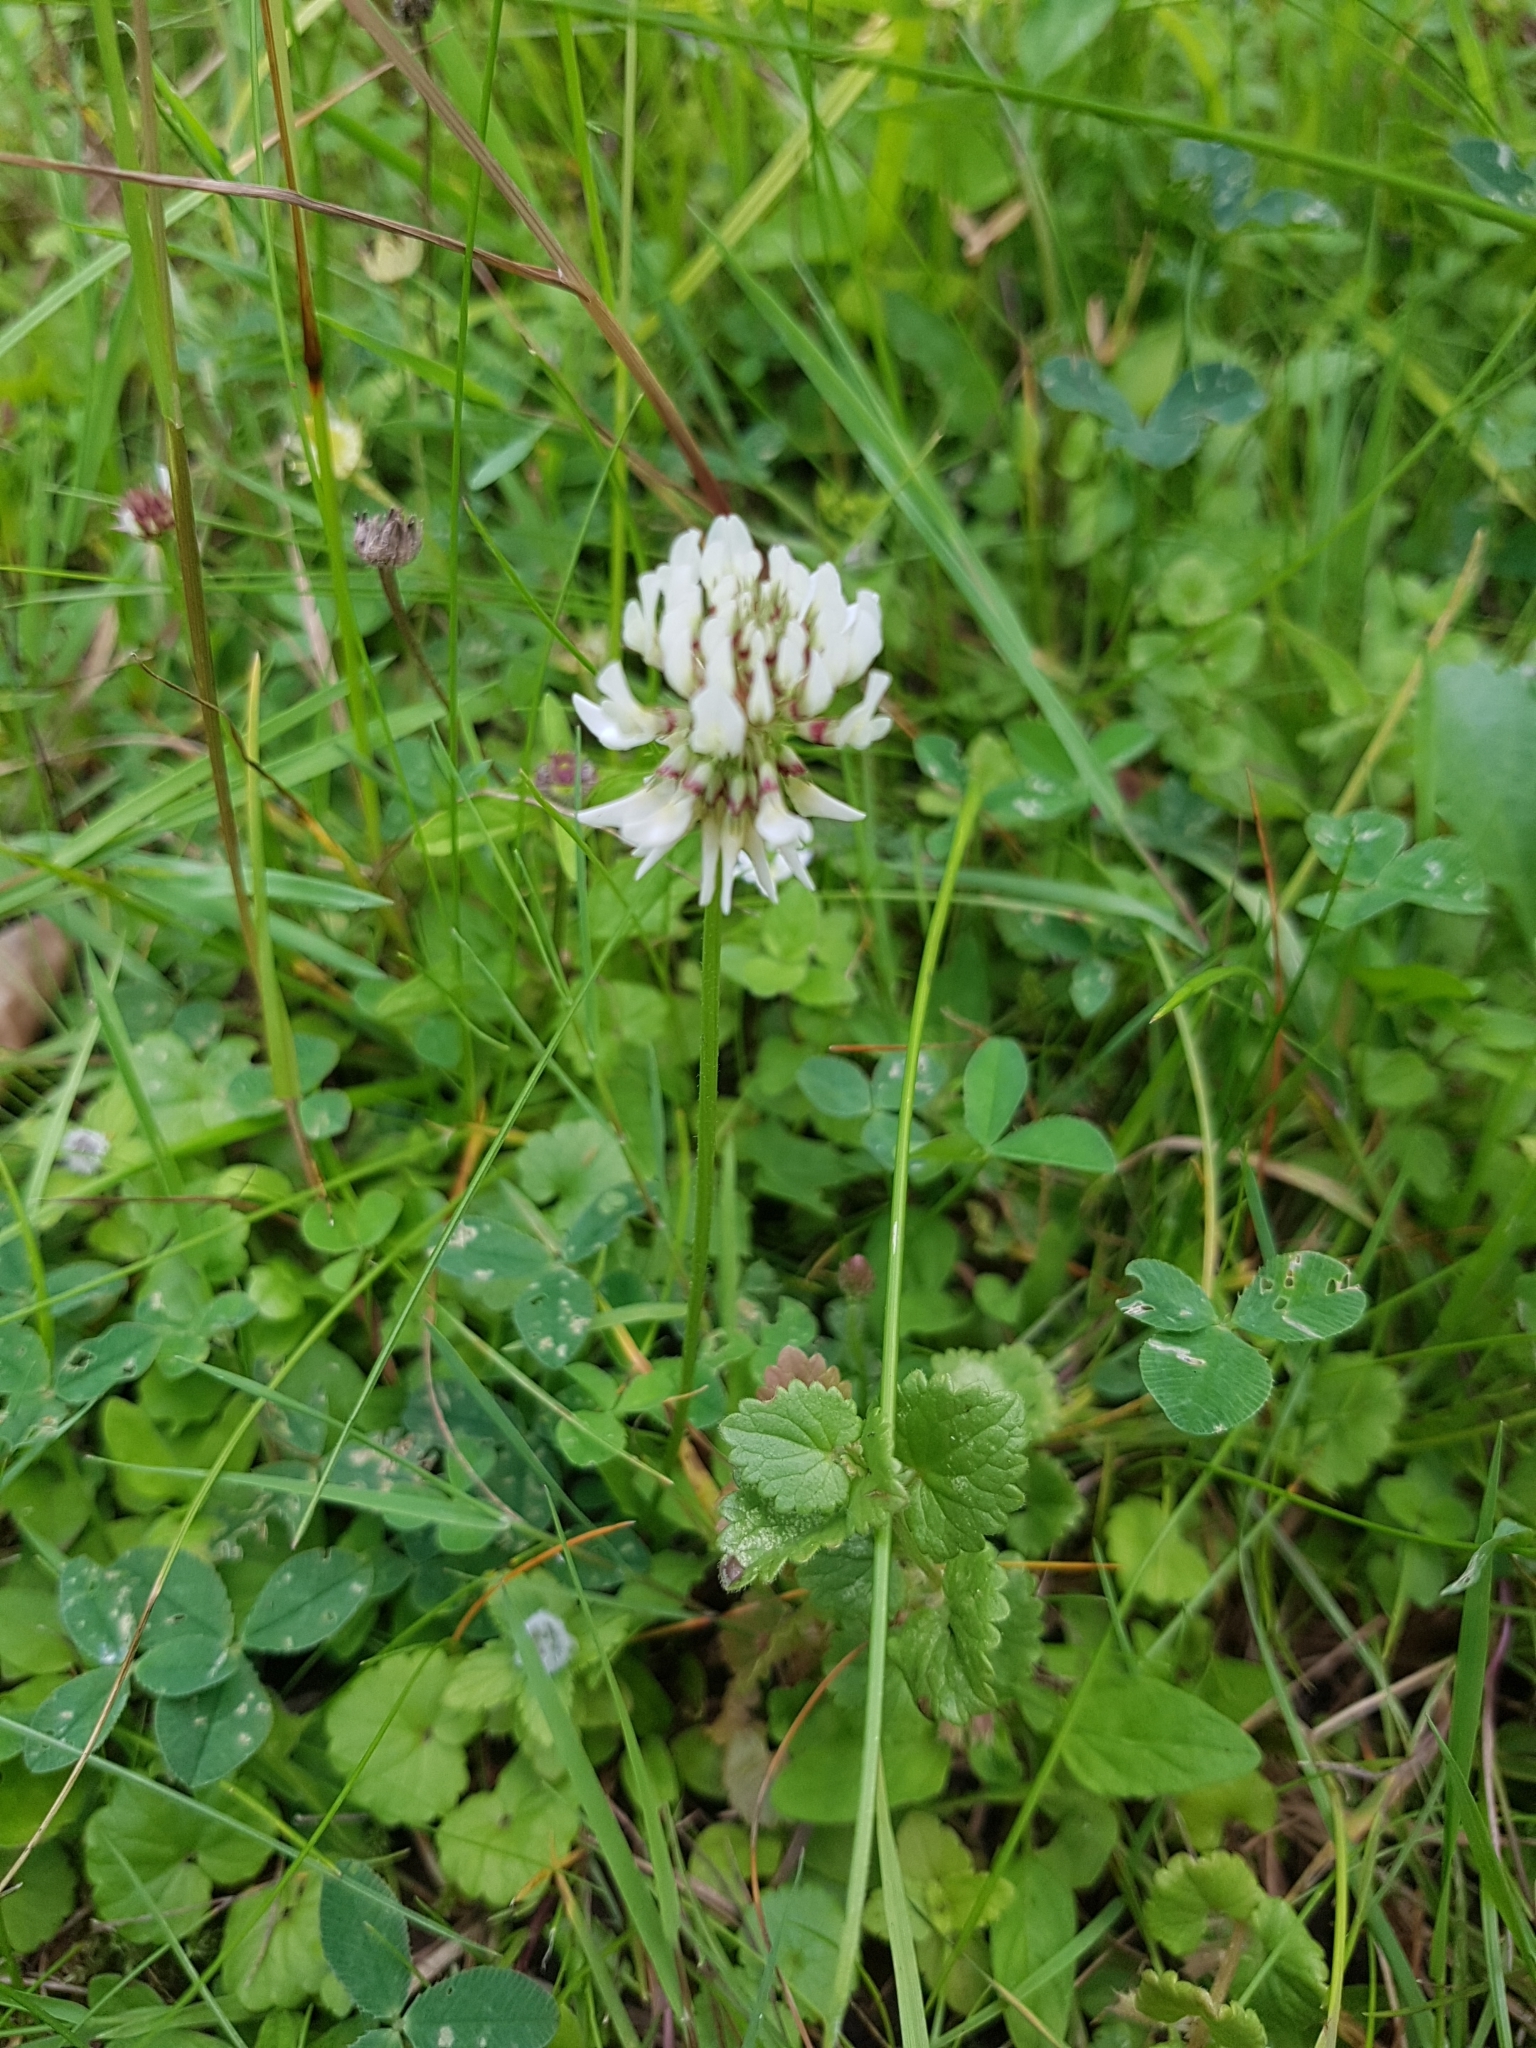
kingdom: Plantae
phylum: Tracheophyta
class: Magnoliopsida
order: Fabales
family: Fabaceae
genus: Trifolium
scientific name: Trifolium repens
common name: White clover
